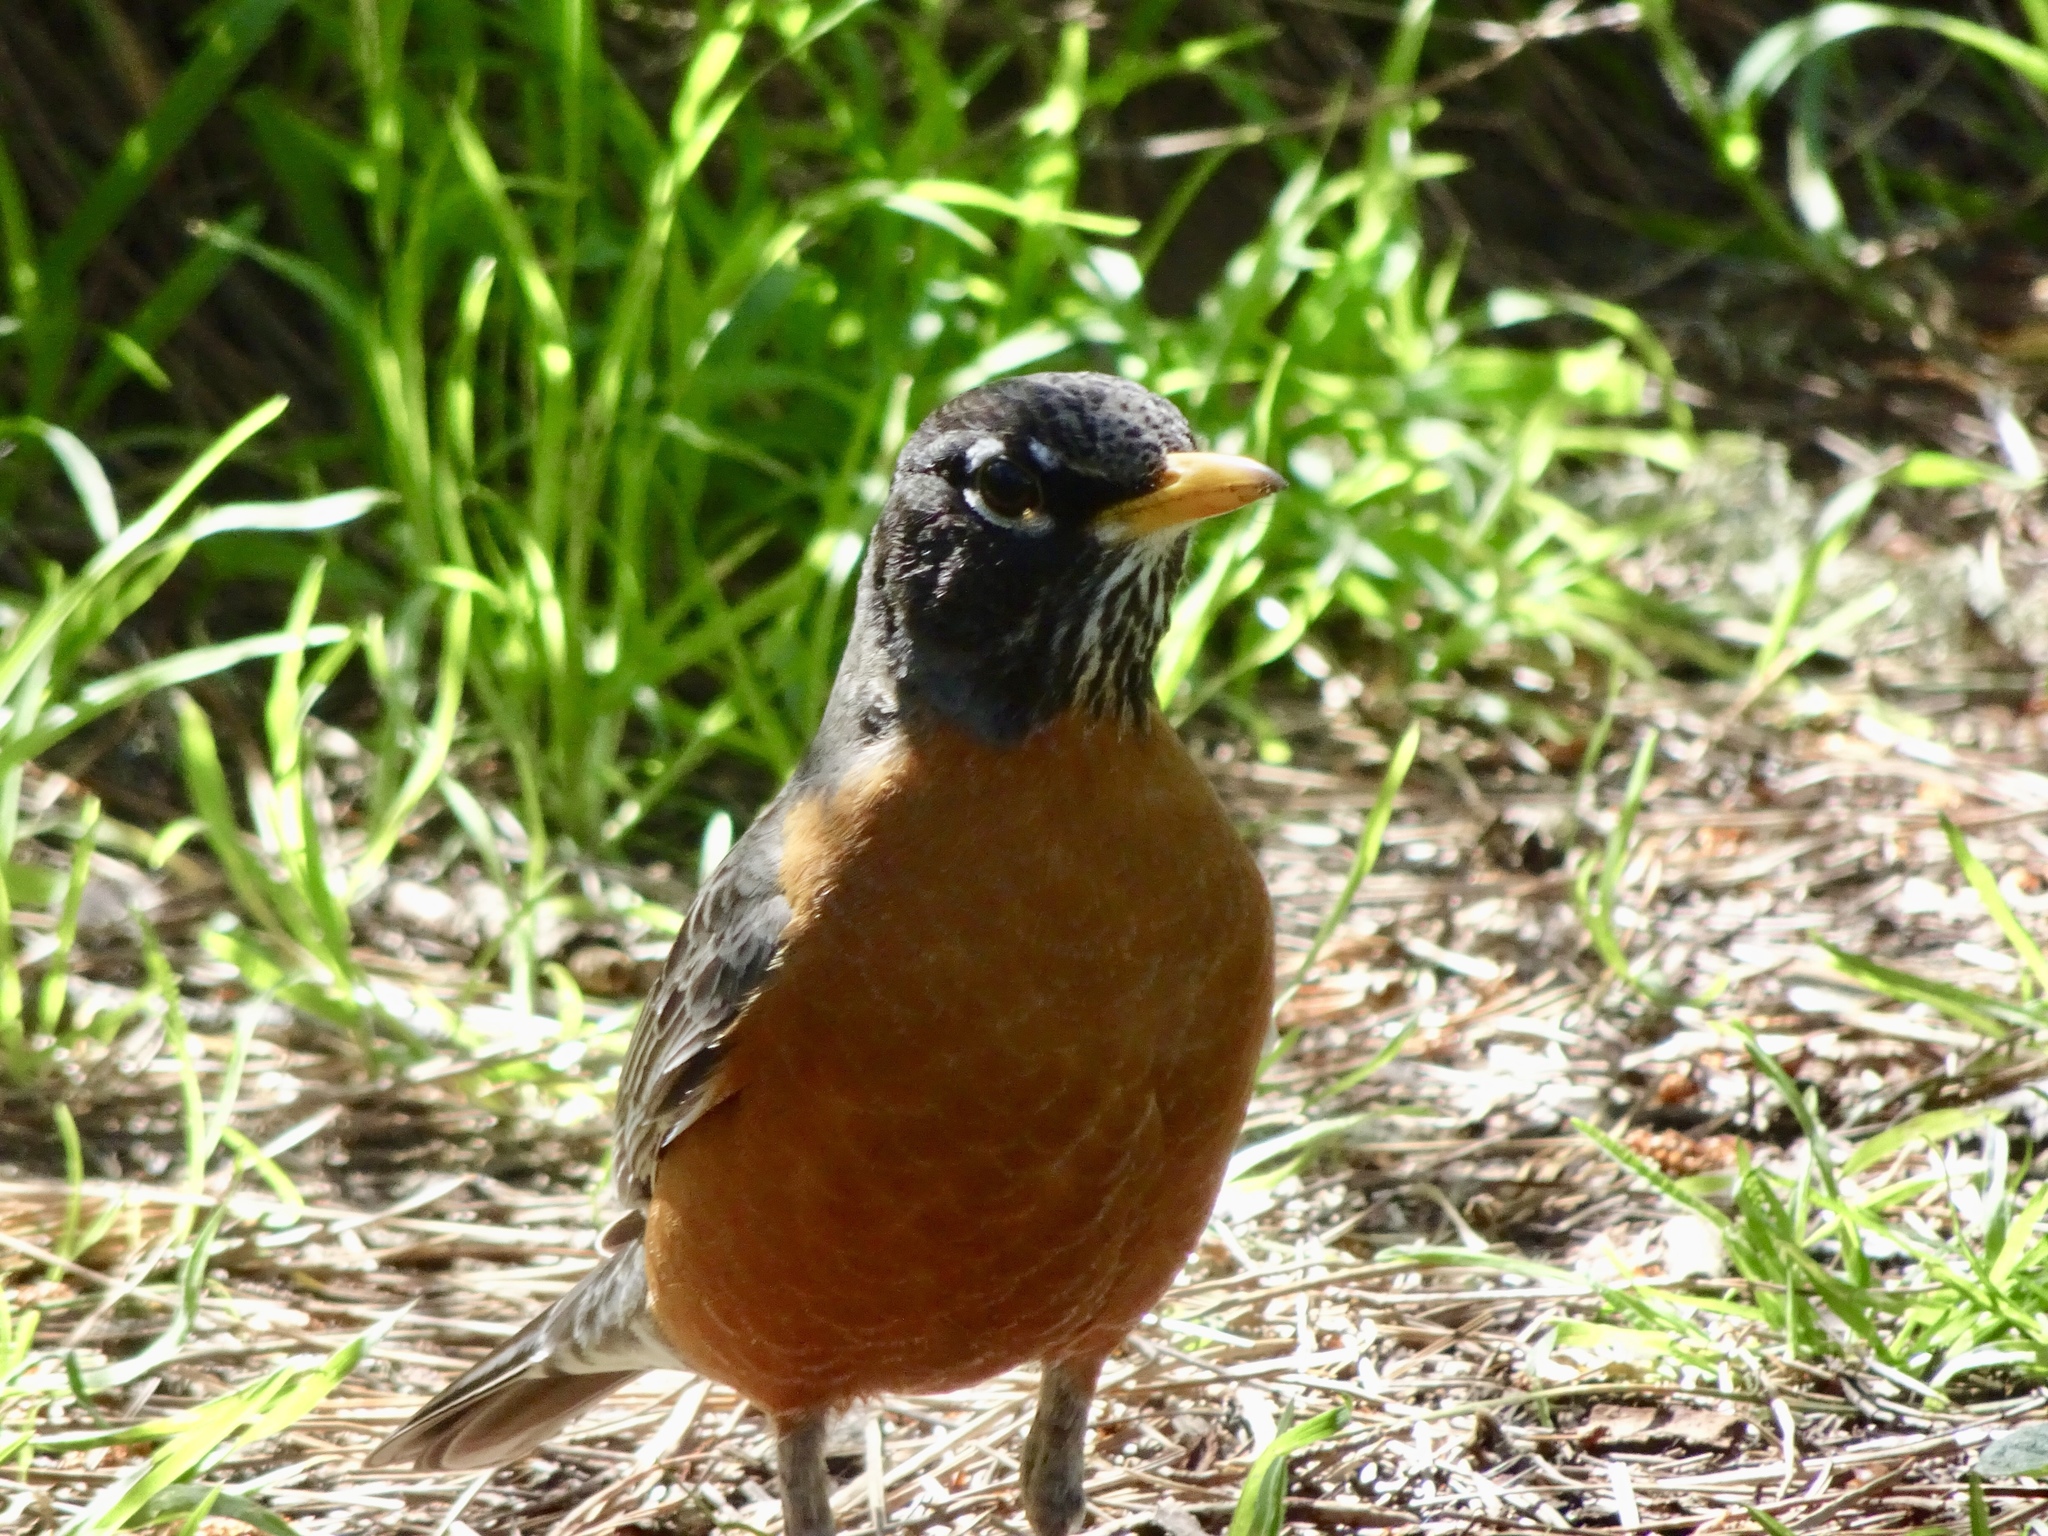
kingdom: Animalia
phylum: Chordata
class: Aves
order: Passeriformes
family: Turdidae
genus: Turdus
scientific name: Turdus migratorius
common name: American robin
